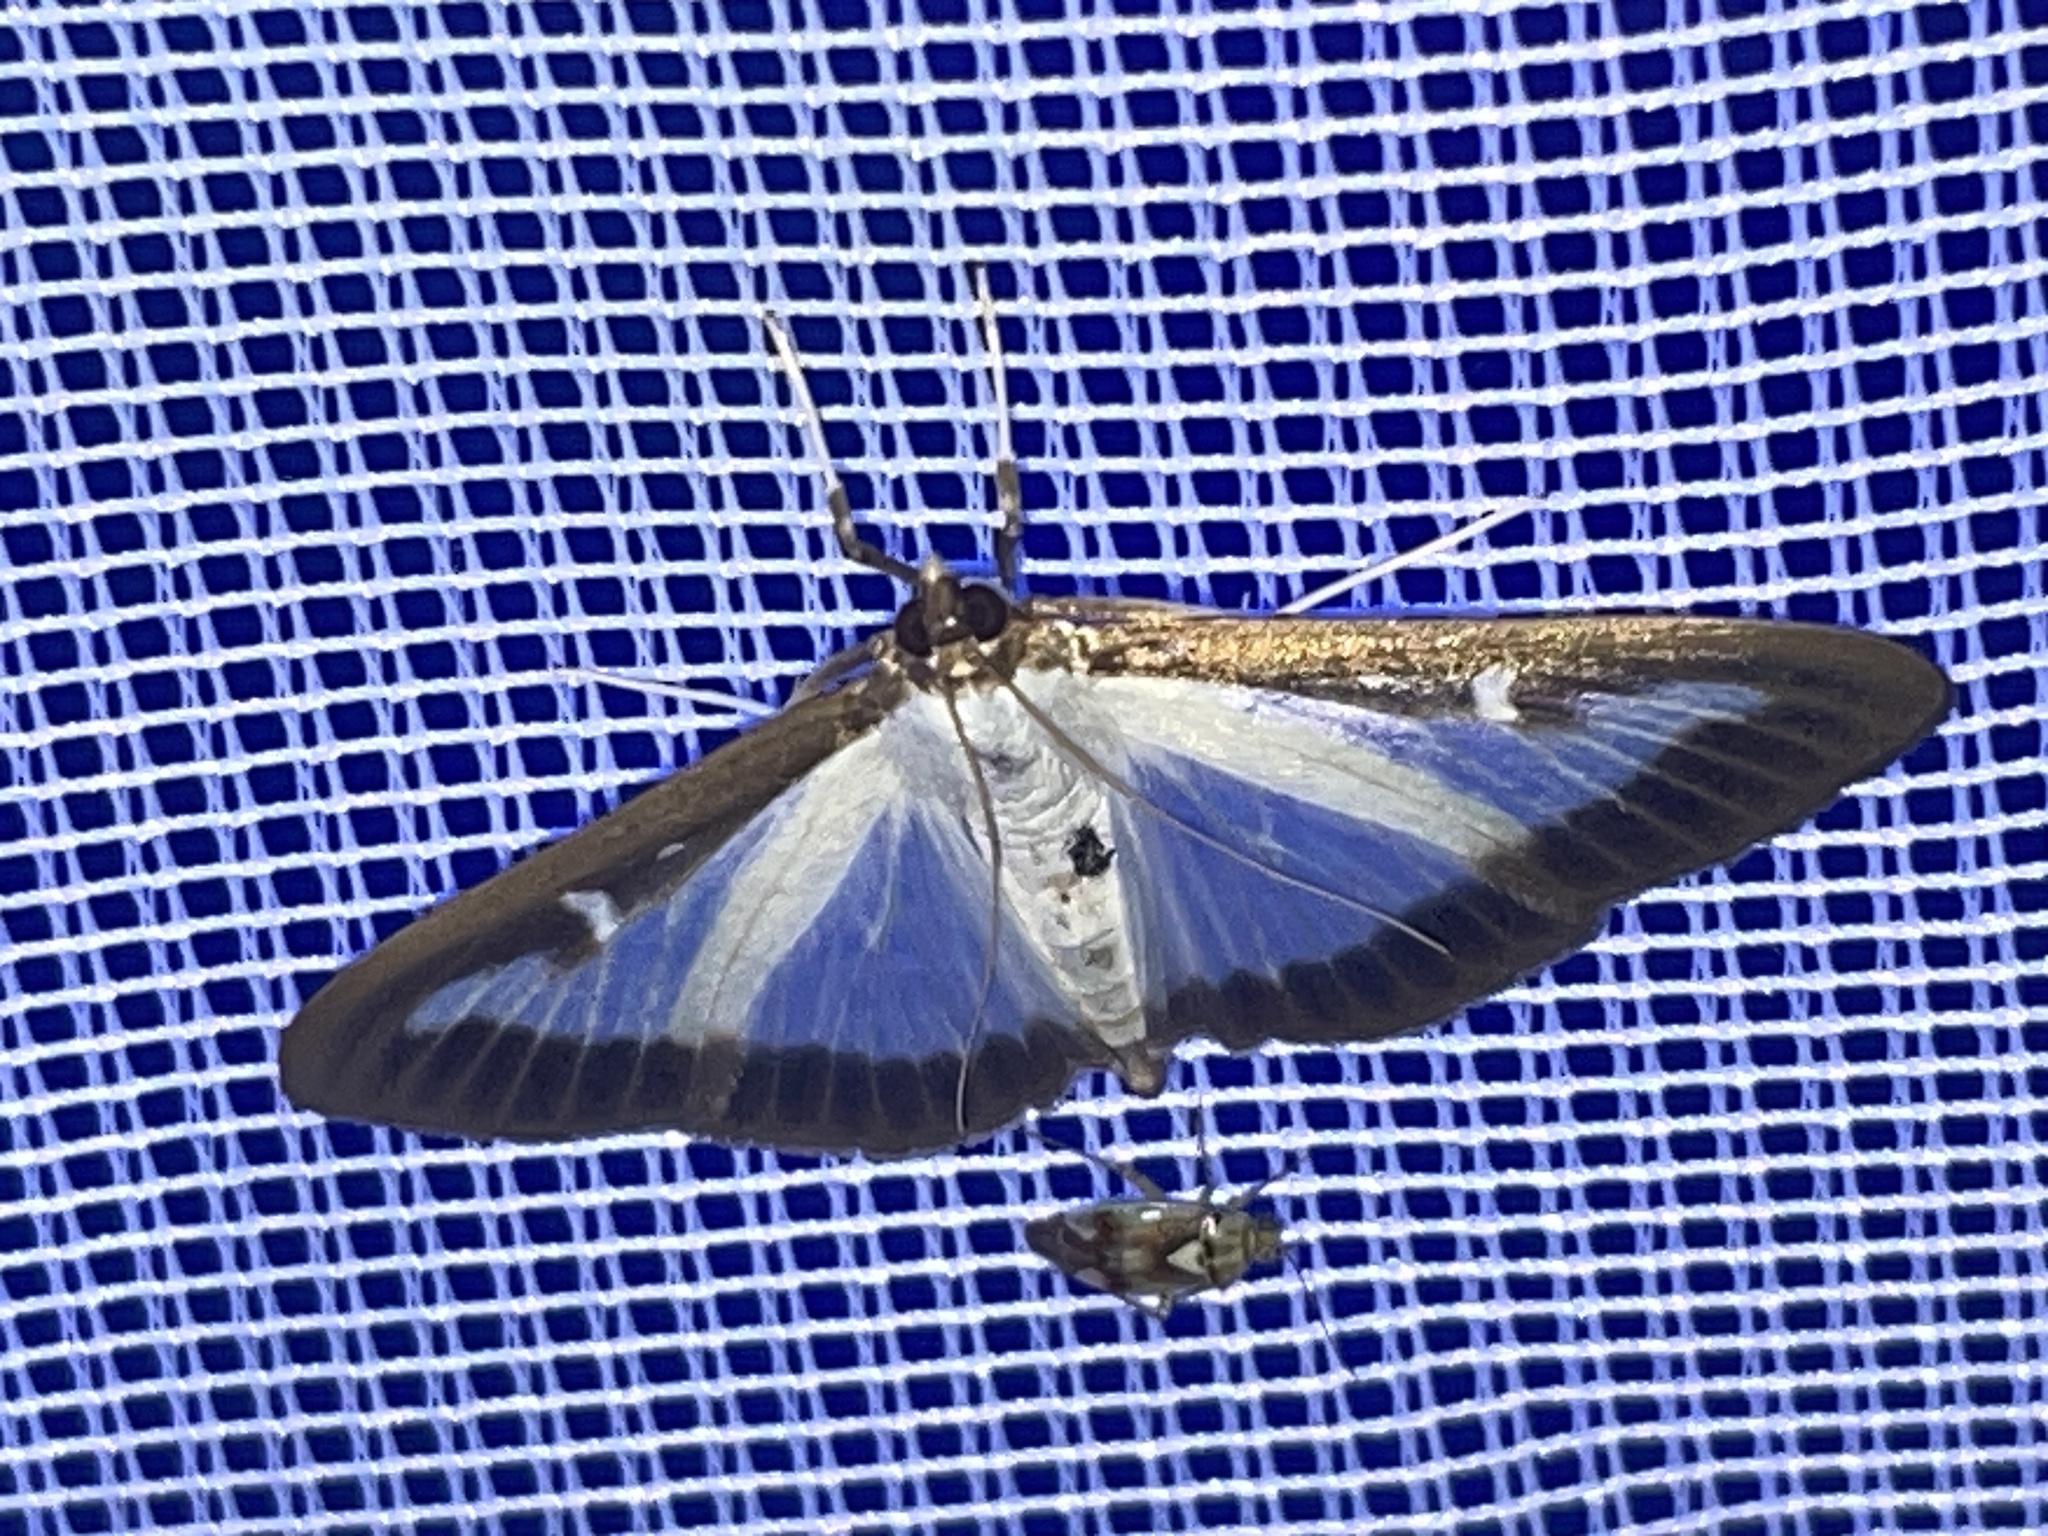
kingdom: Animalia
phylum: Arthropoda
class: Insecta
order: Lepidoptera
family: Crambidae
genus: Cydalima
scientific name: Cydalima perspectalis
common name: Box tree moth
